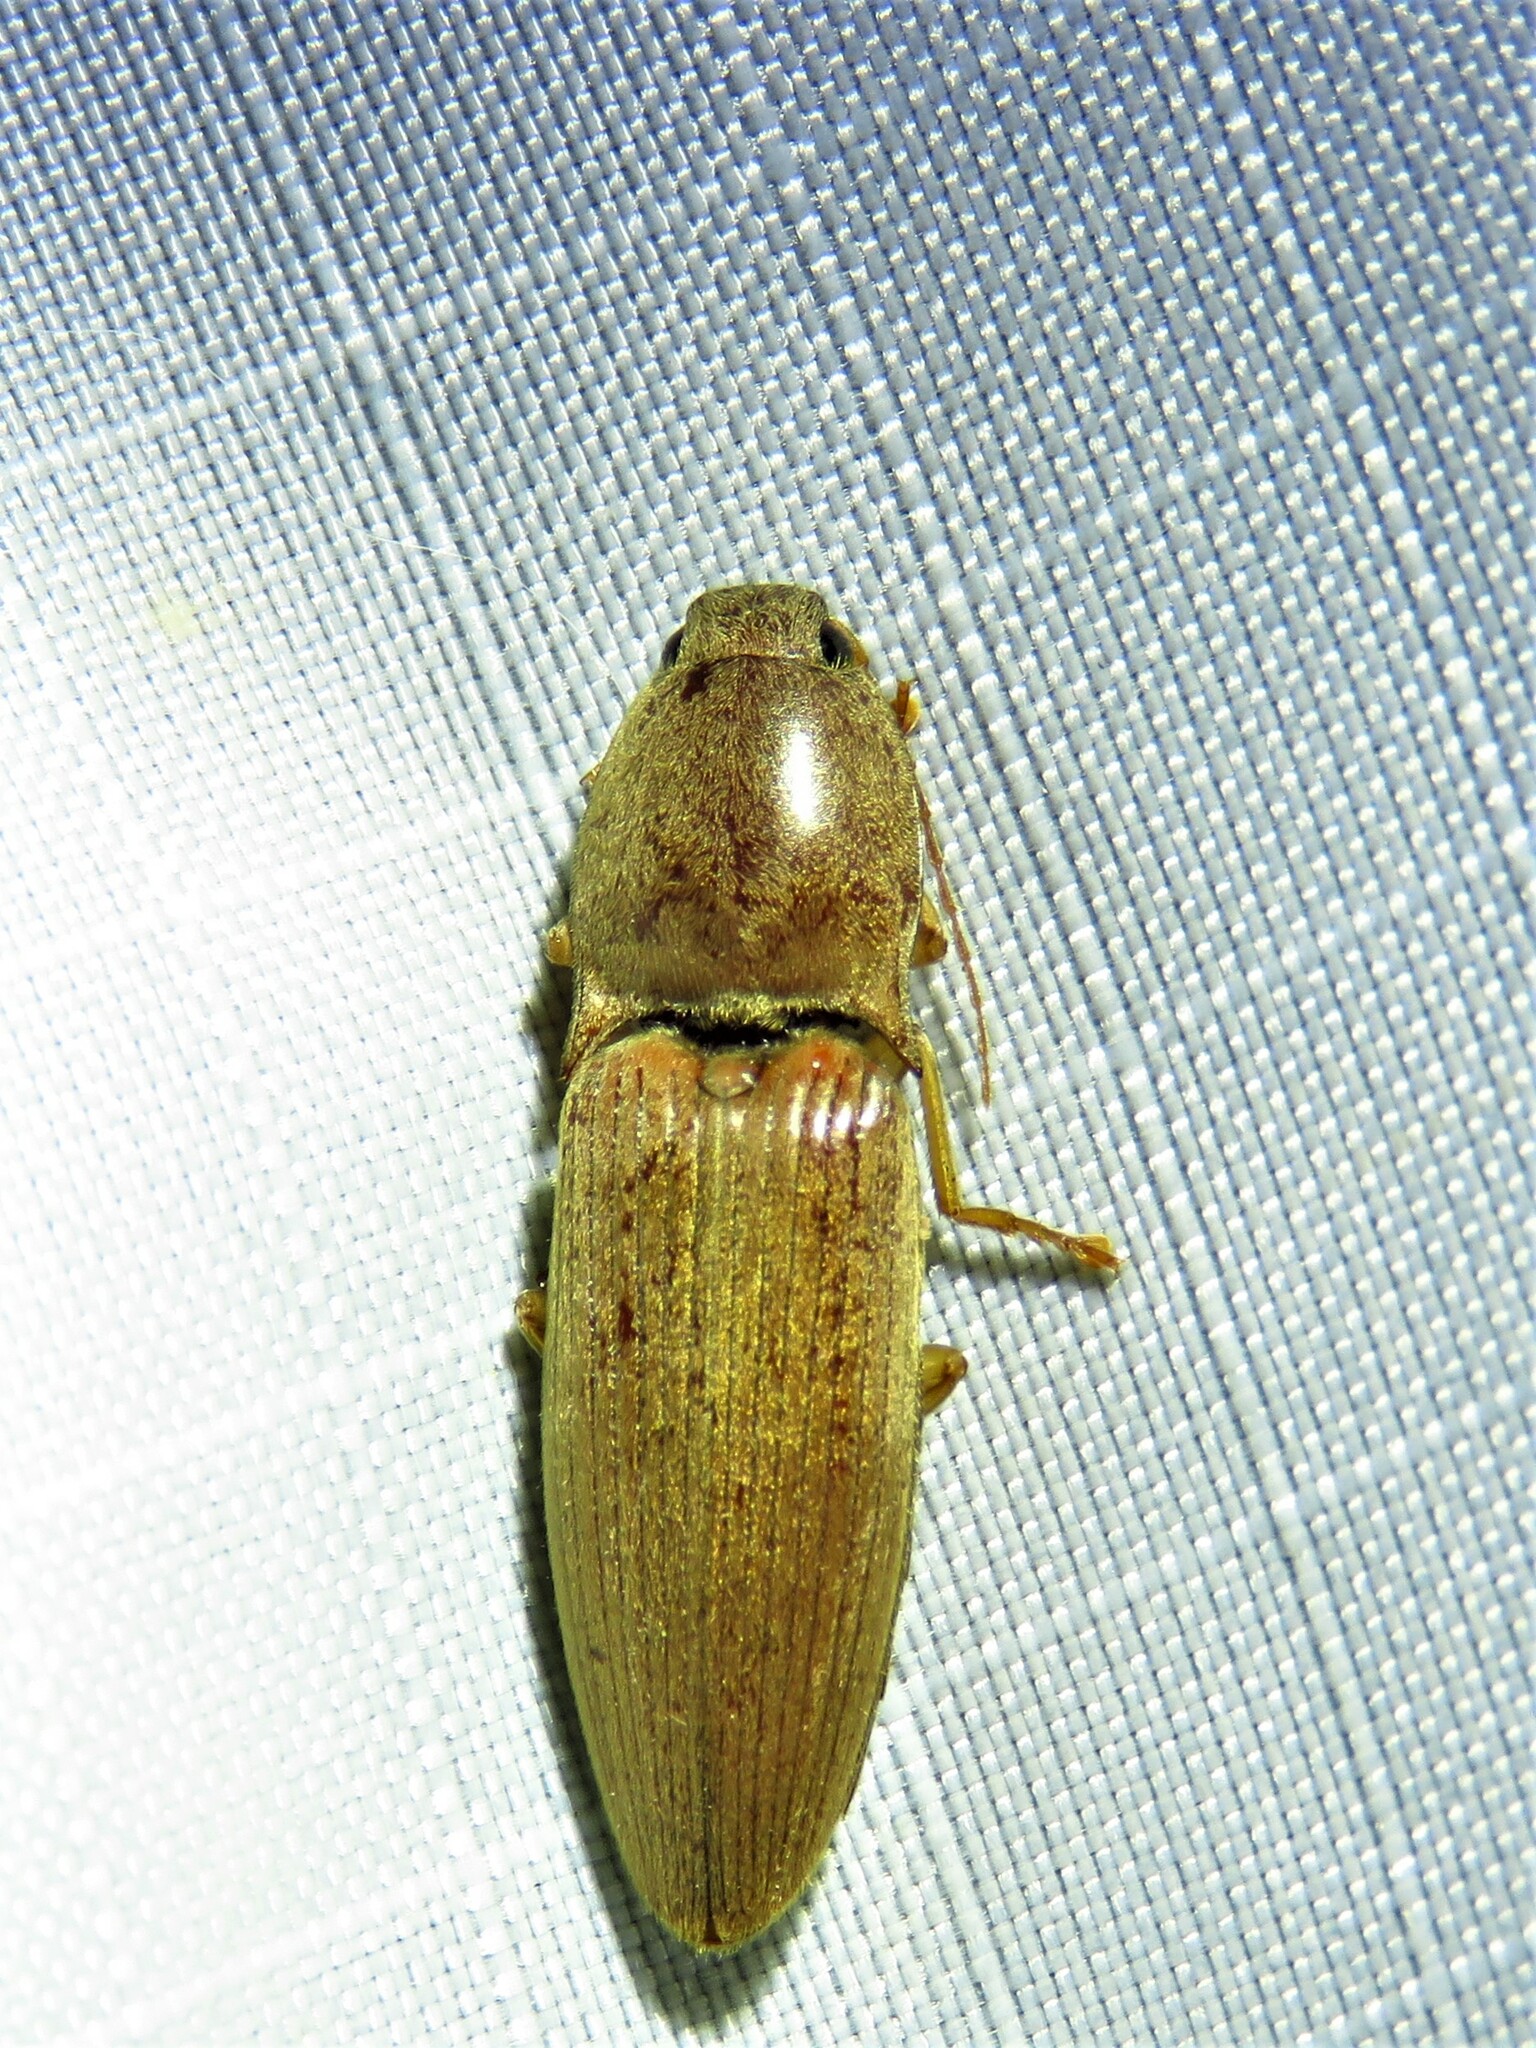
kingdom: Animalia
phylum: Arthropoda
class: Insecta
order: Coleoptera
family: Elateridae
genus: Monocrepidius
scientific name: Monocrepidius lividus
